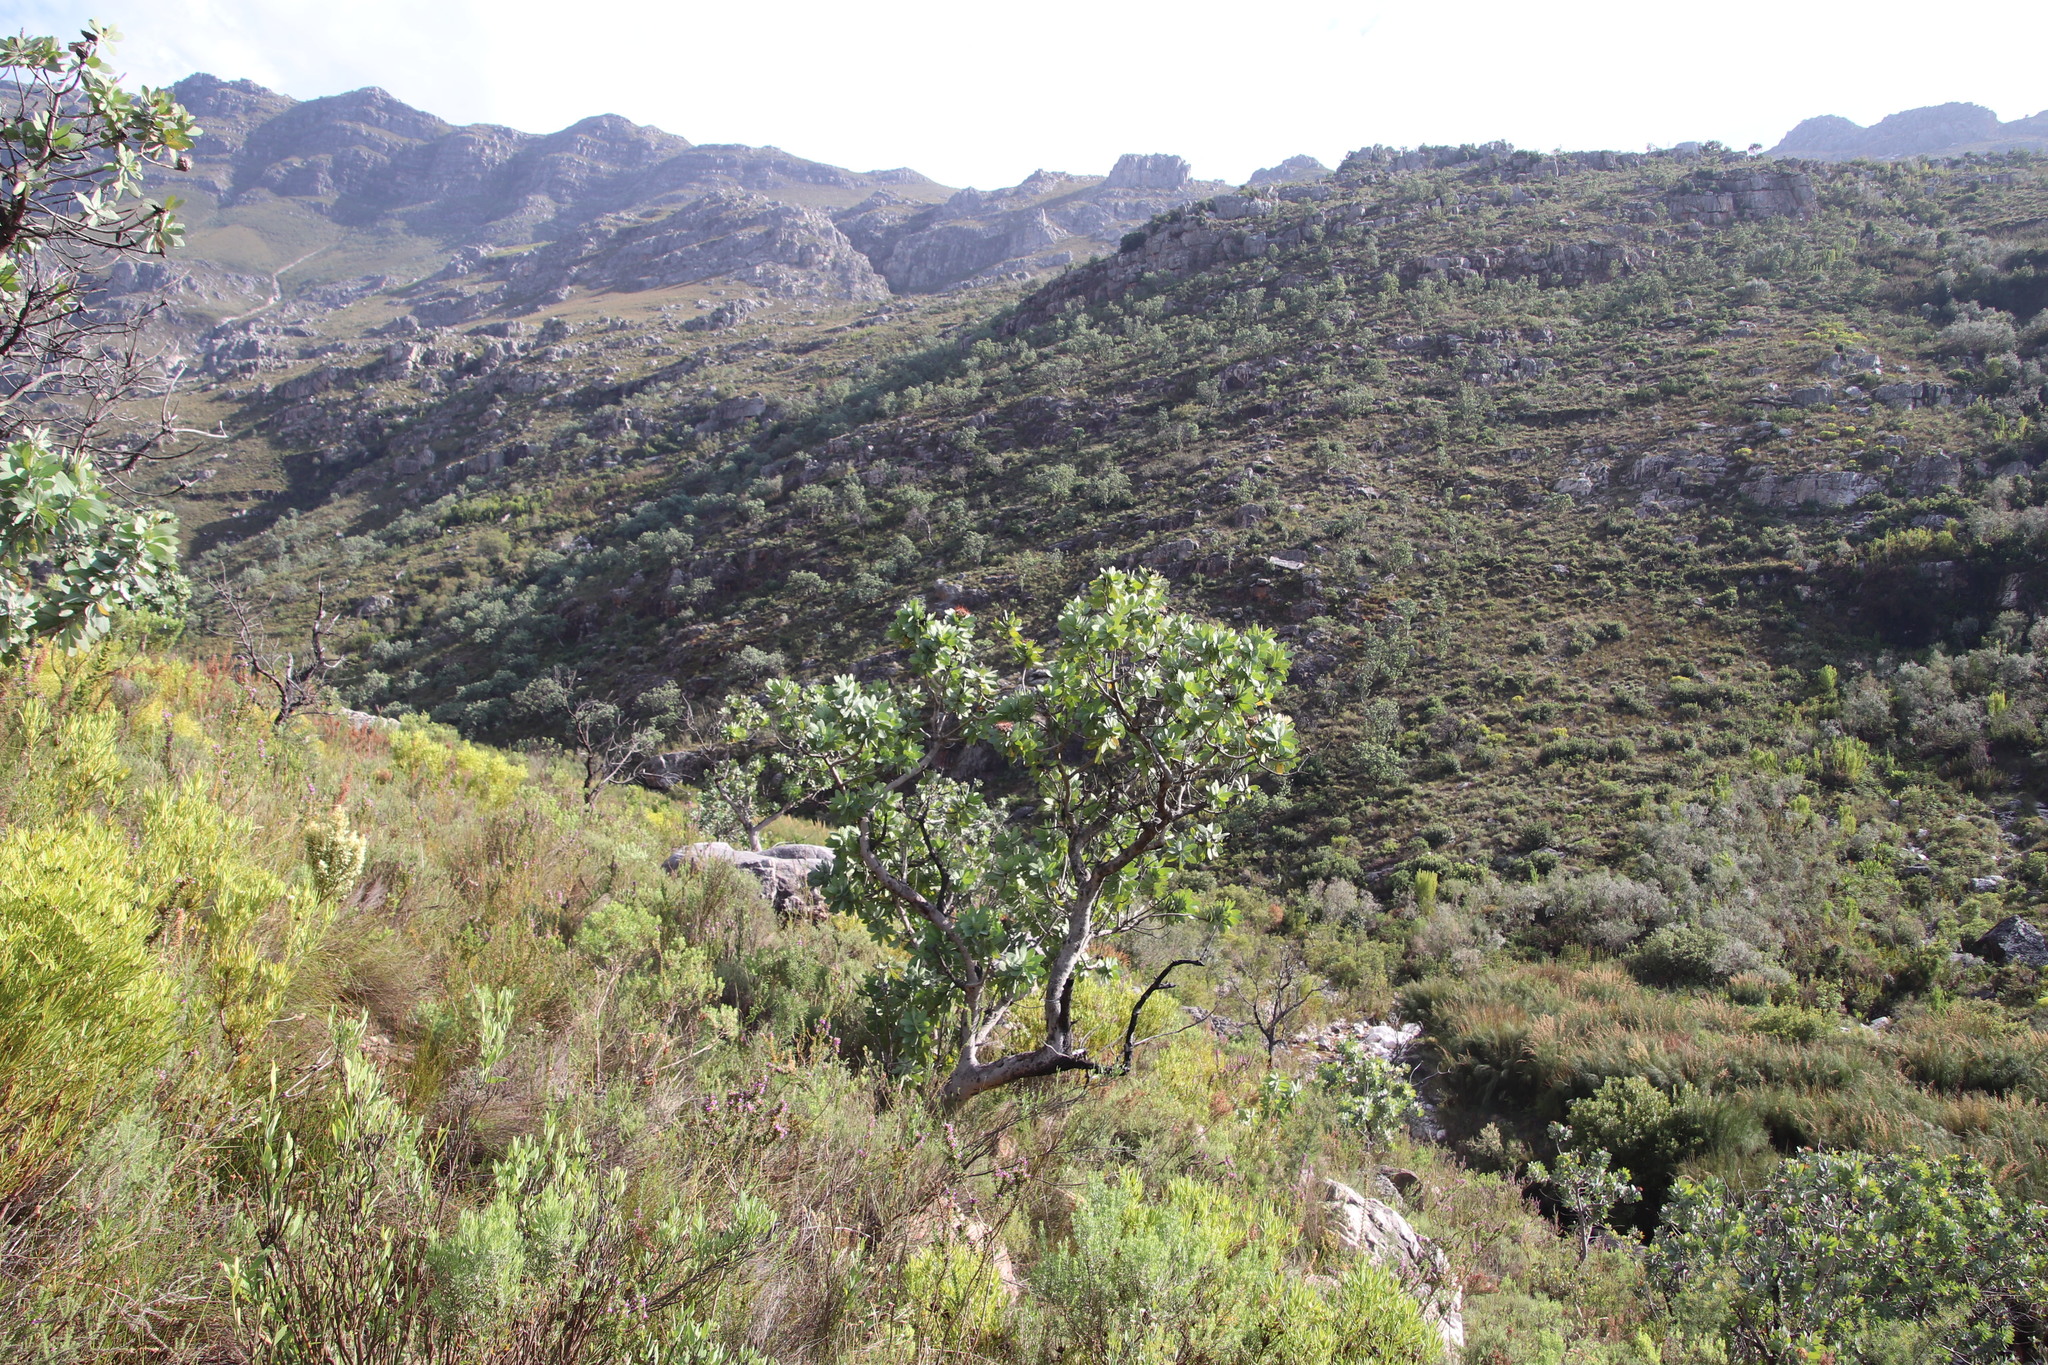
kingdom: Plantae
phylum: Tracheophyta
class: Magnoliopsida
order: Proteales
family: Proteaceae
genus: Protea
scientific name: Protea nitida
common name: Tree protea
